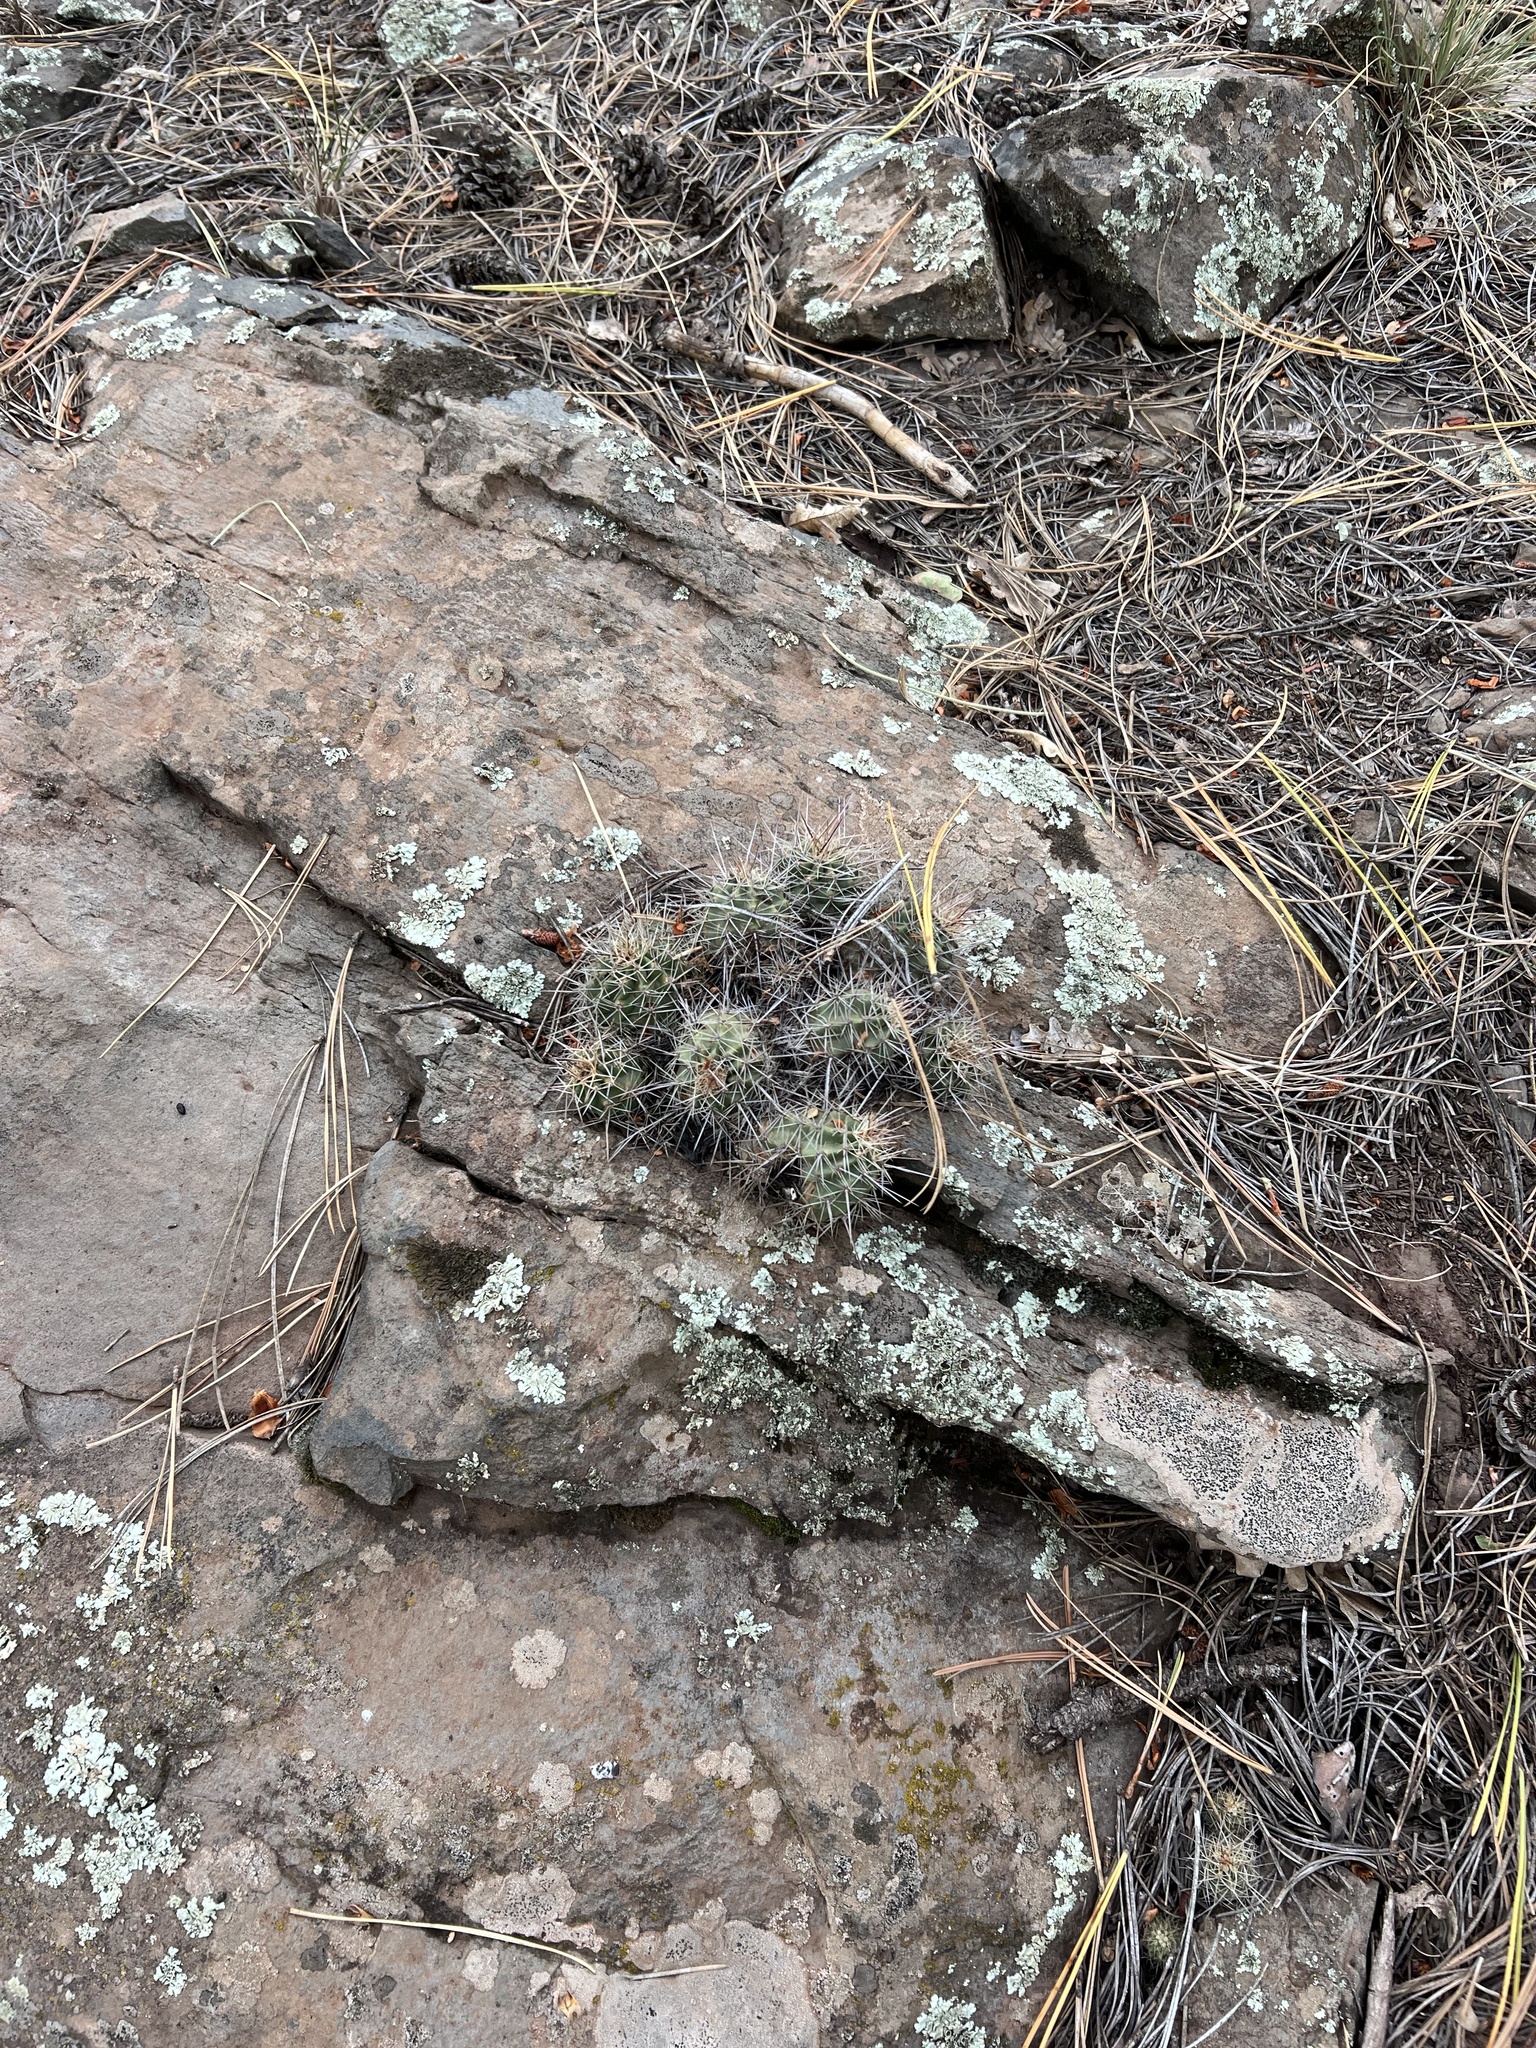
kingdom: Plantae
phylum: Tracheophyta
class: Magnoliopsida
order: Caryophyllales
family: Cactaceae
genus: Echinocereus
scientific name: Echinocereus bakeri
